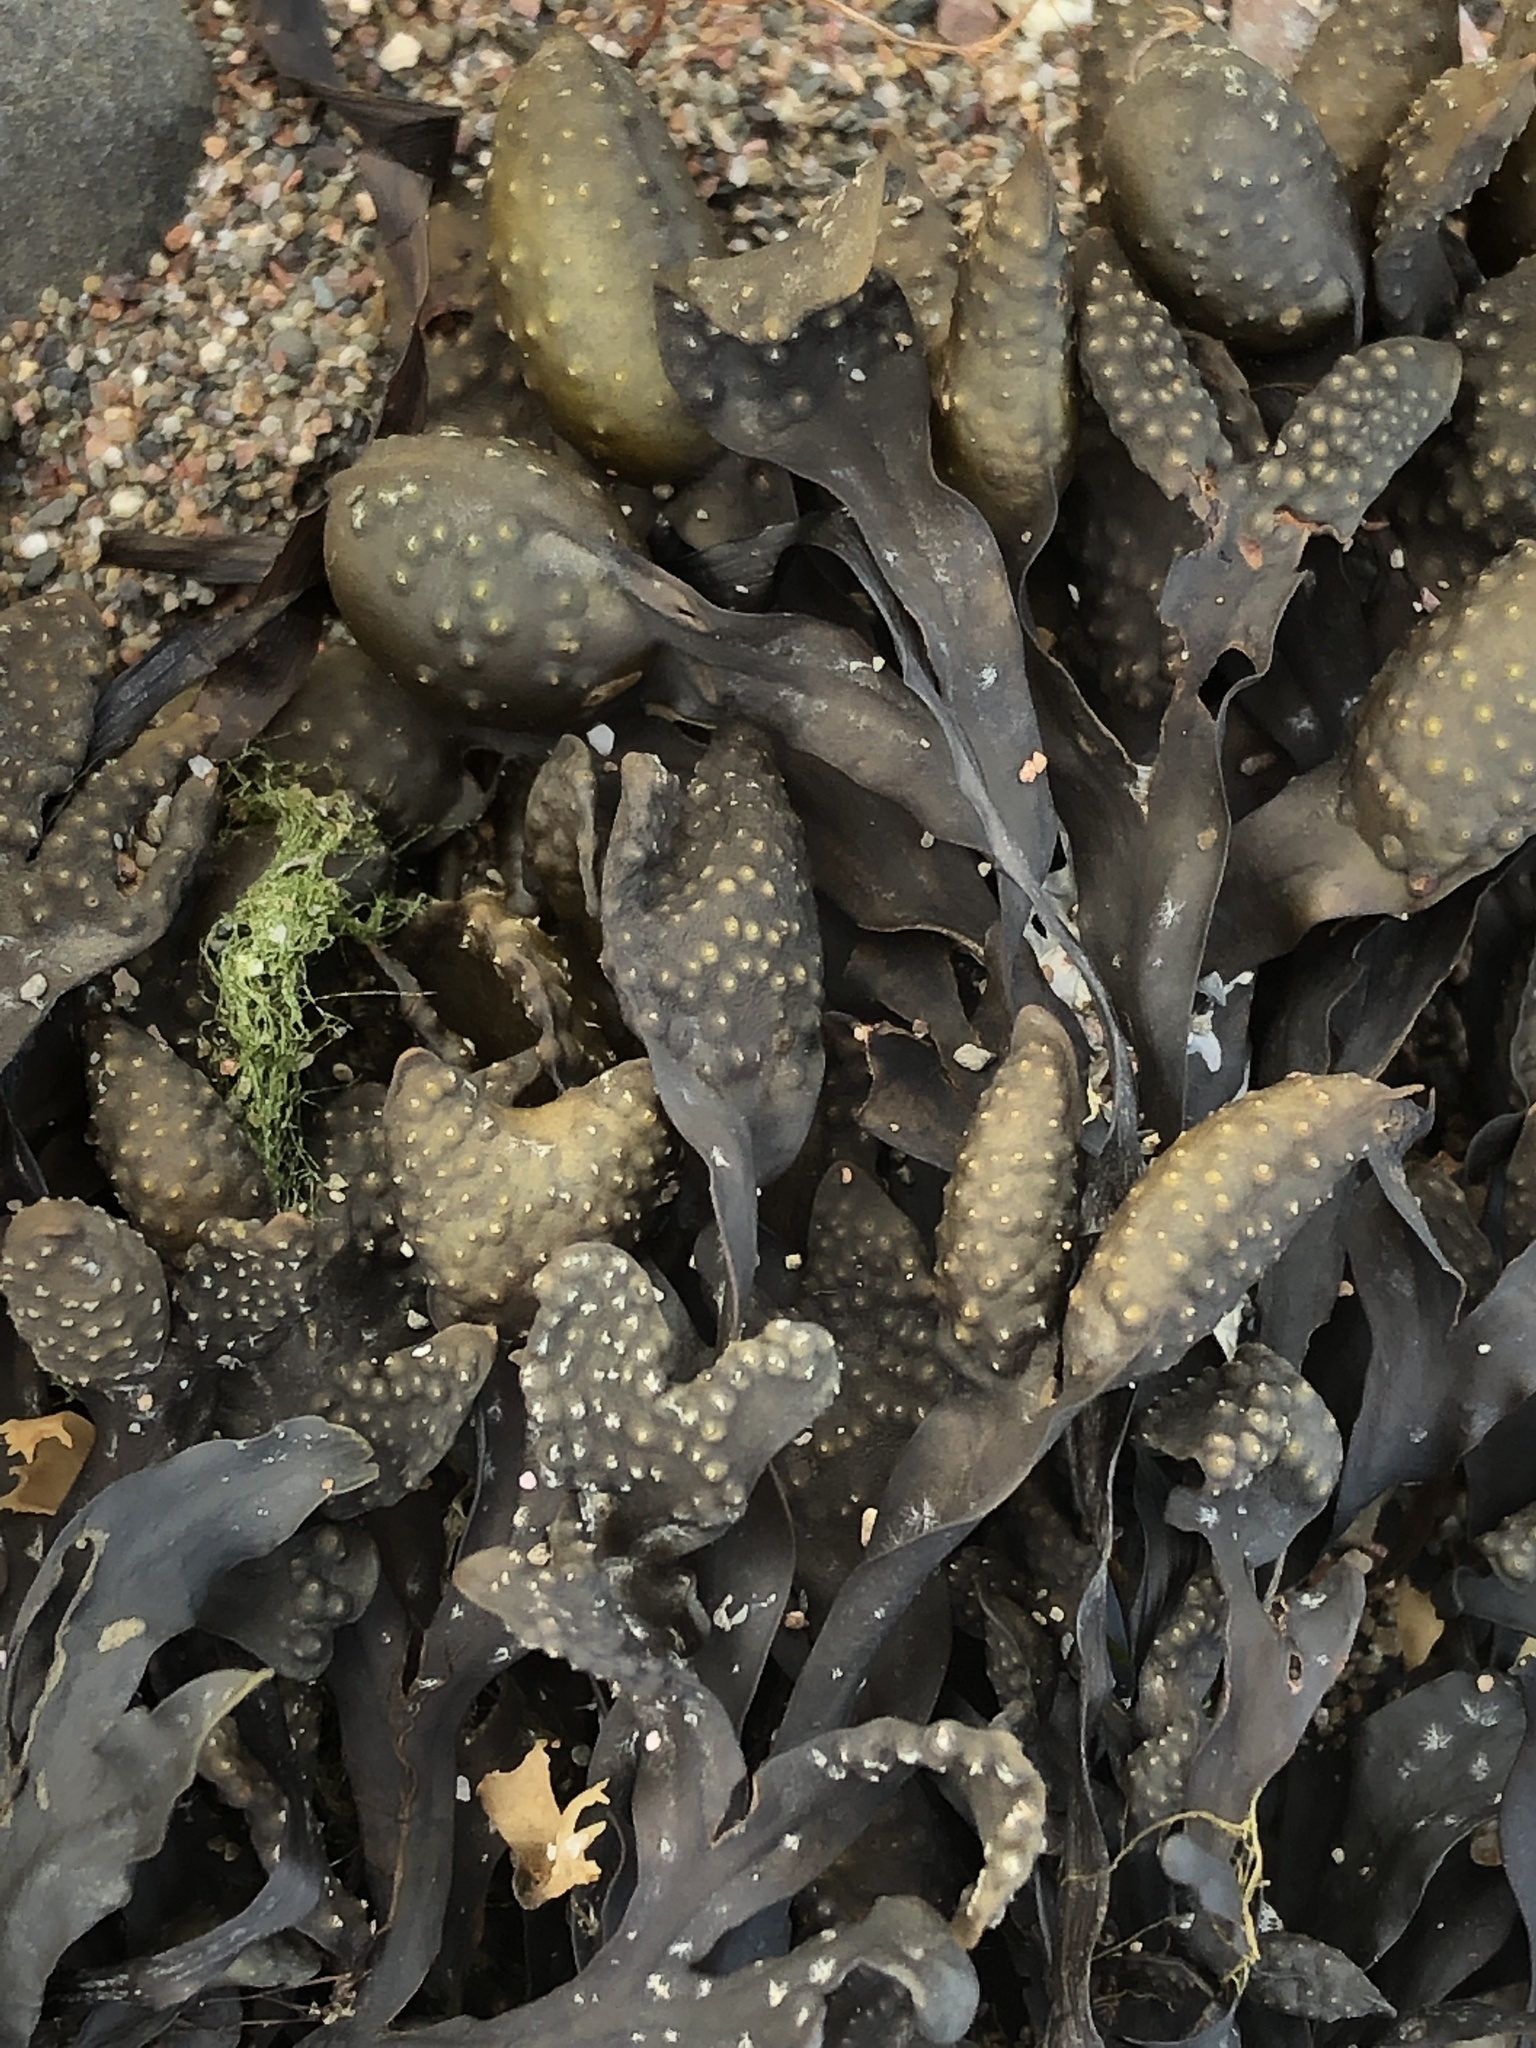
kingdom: Chromista
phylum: Ochrophyta
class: Phaeophyceae
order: Fucales
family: Fucaceae
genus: Fucus
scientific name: Fucus spiralis
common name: Spiral wrack
